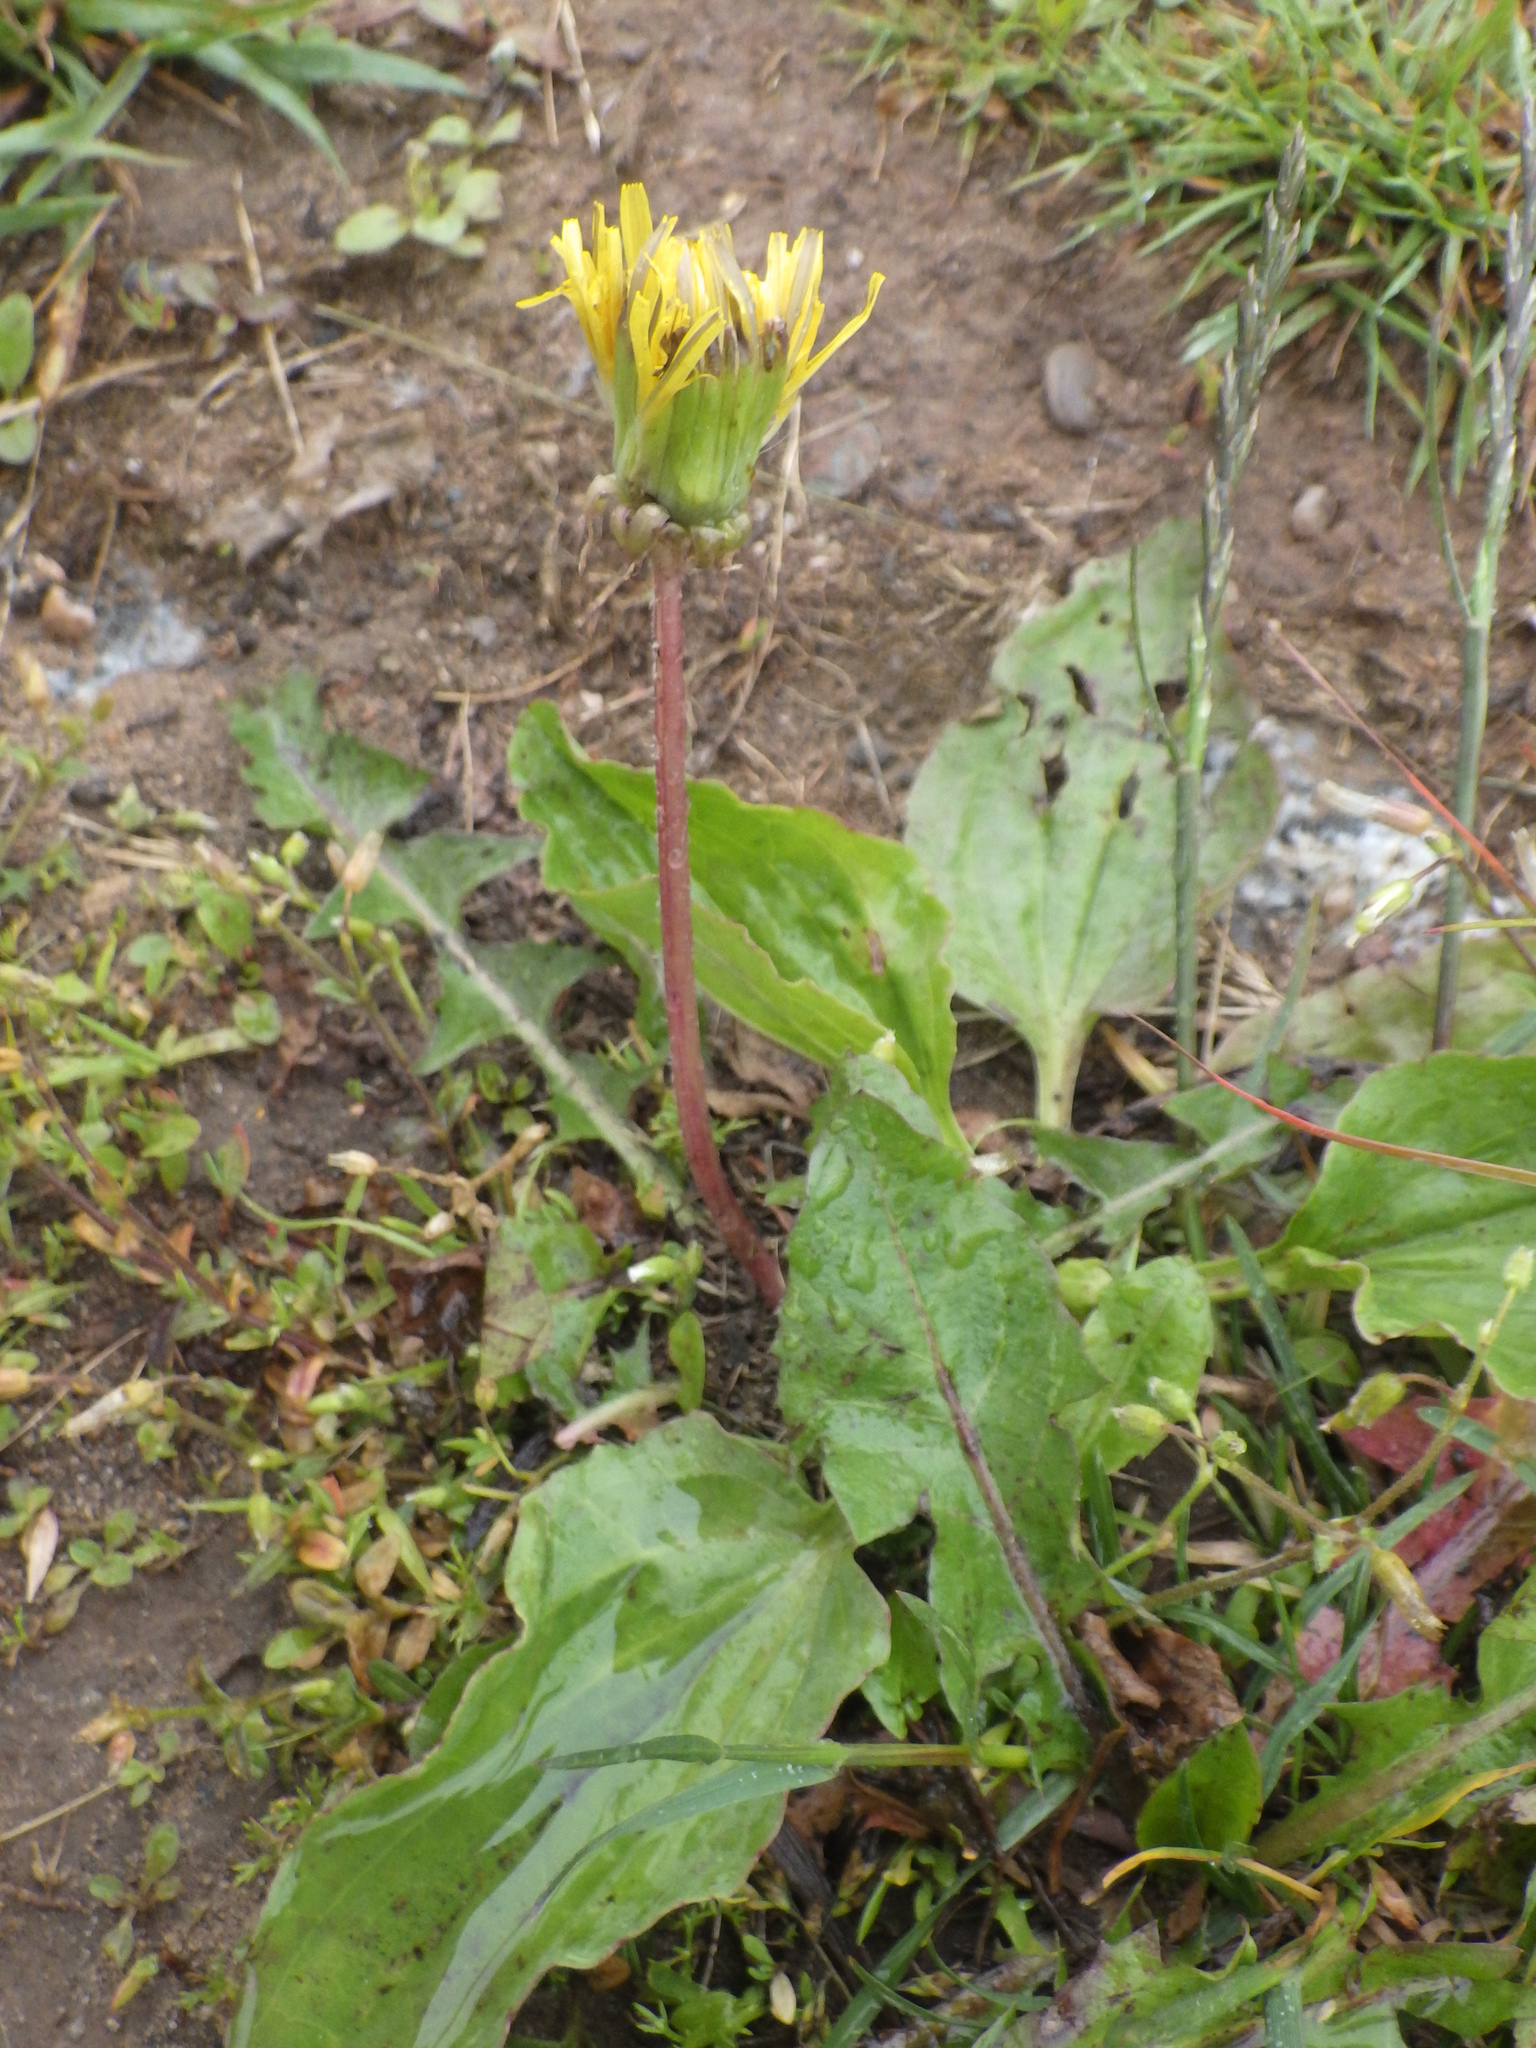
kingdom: Plantae
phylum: Tracheophyta
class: Magnoliopsida
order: Asterales
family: Asteraceae
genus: Taraxacum
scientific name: Taraxacum
